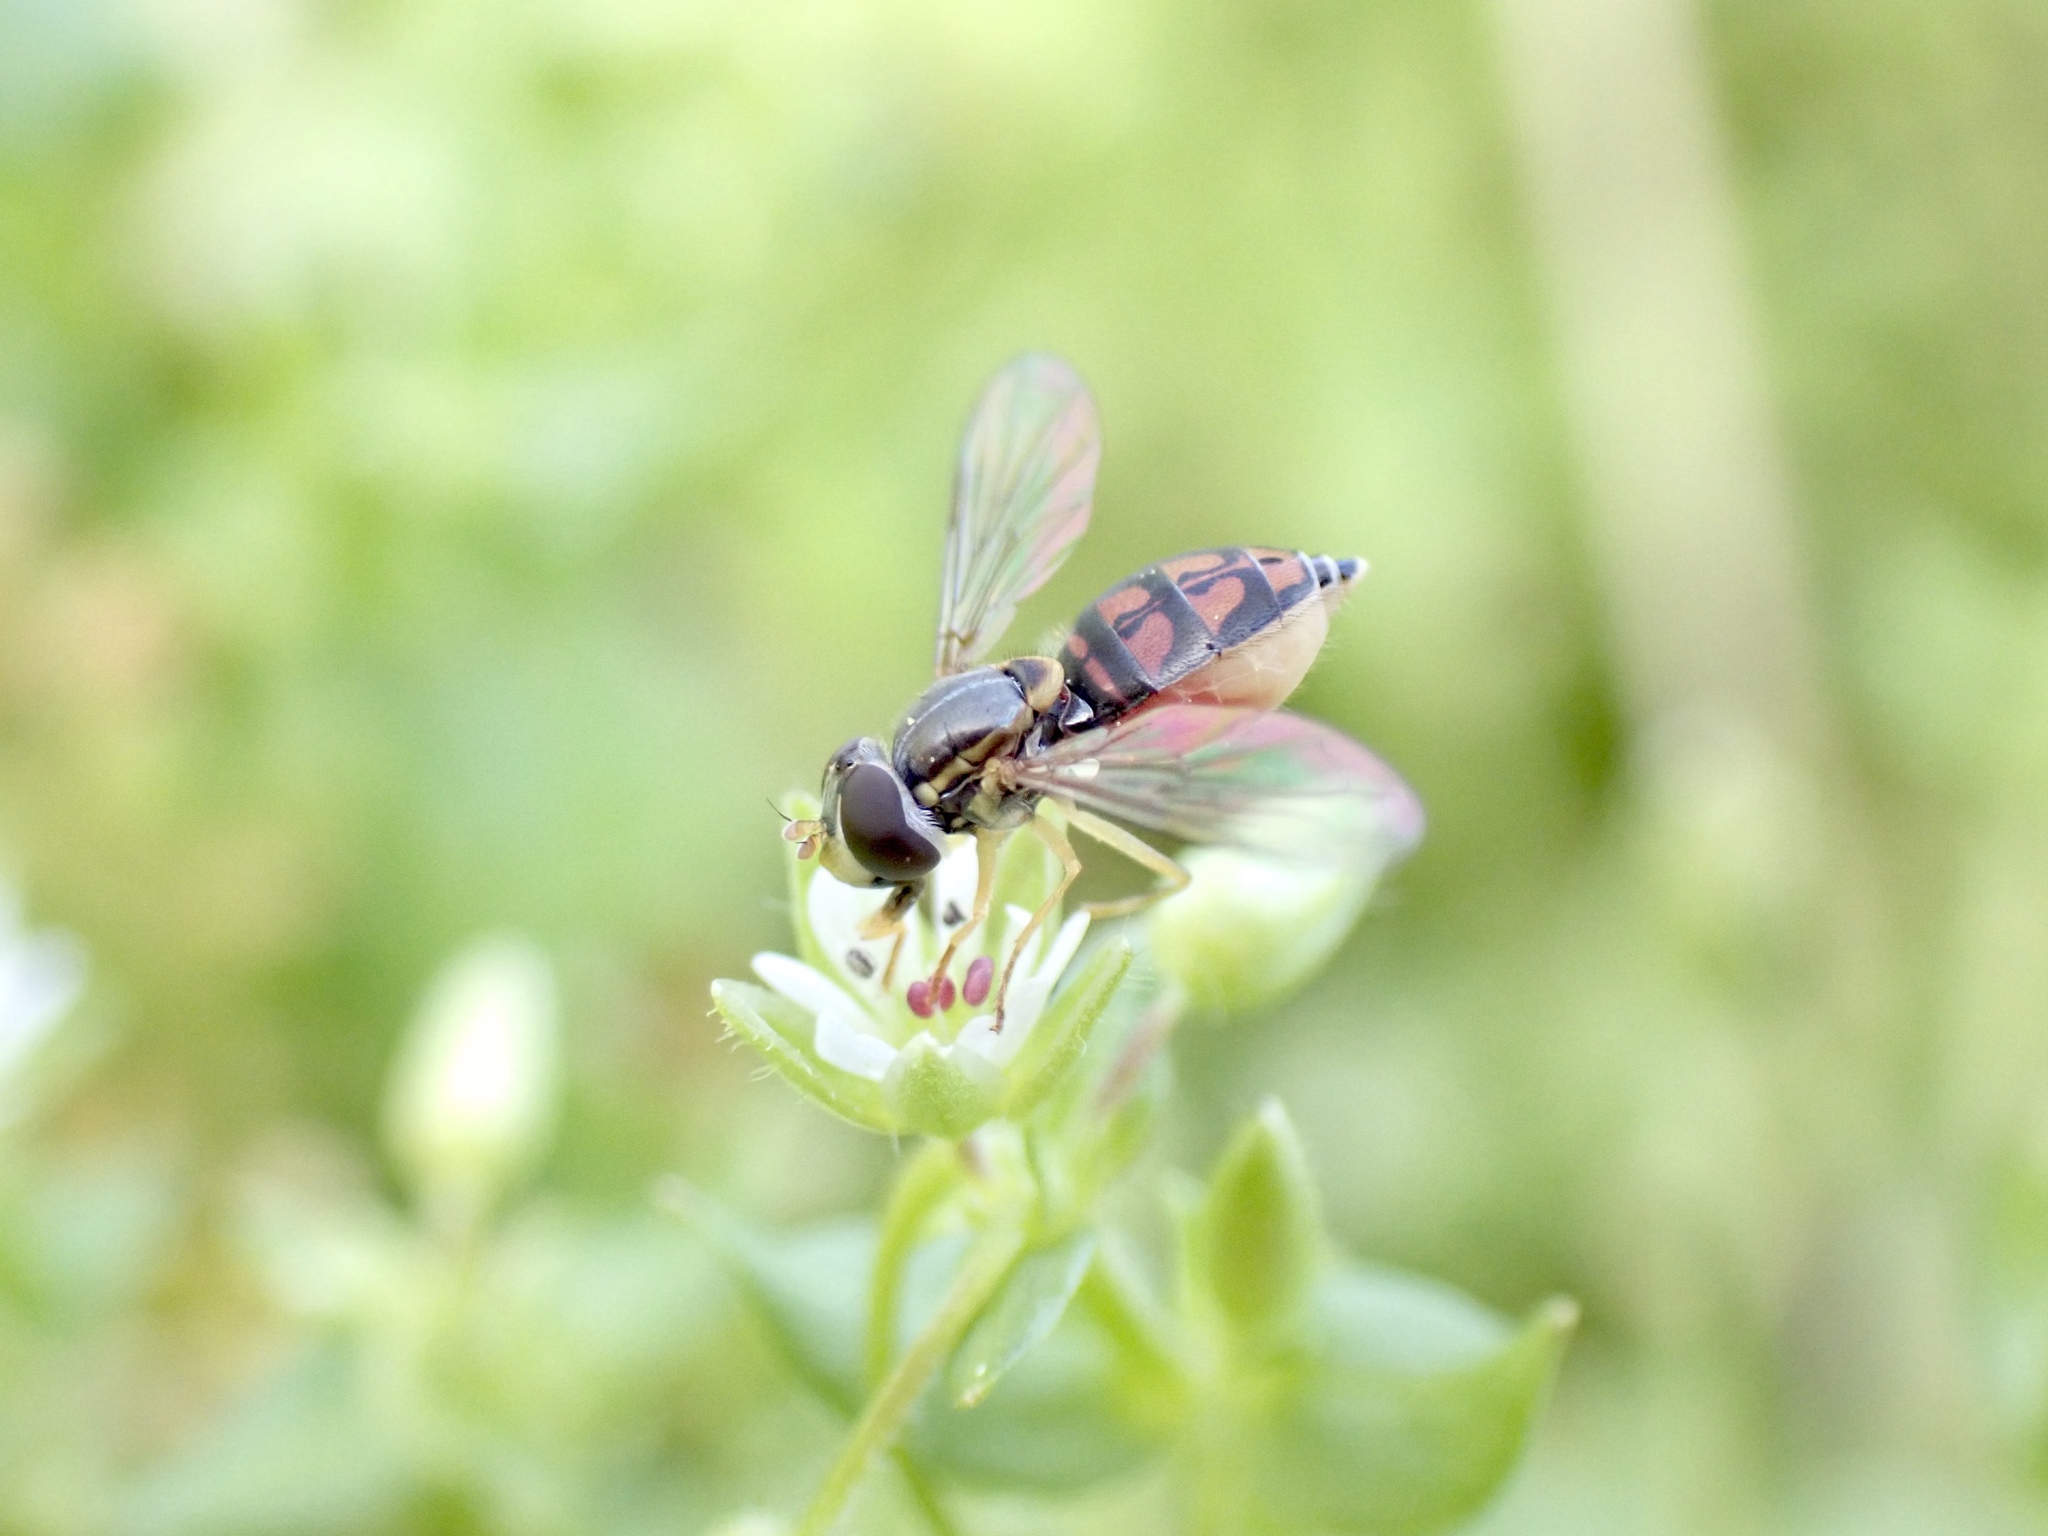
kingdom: Animalia
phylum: Arthropoda
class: Insecta
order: Diptera
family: Syrphidae
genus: Toxomerus
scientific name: Toxomerus marginatus
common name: Syrphid fly
